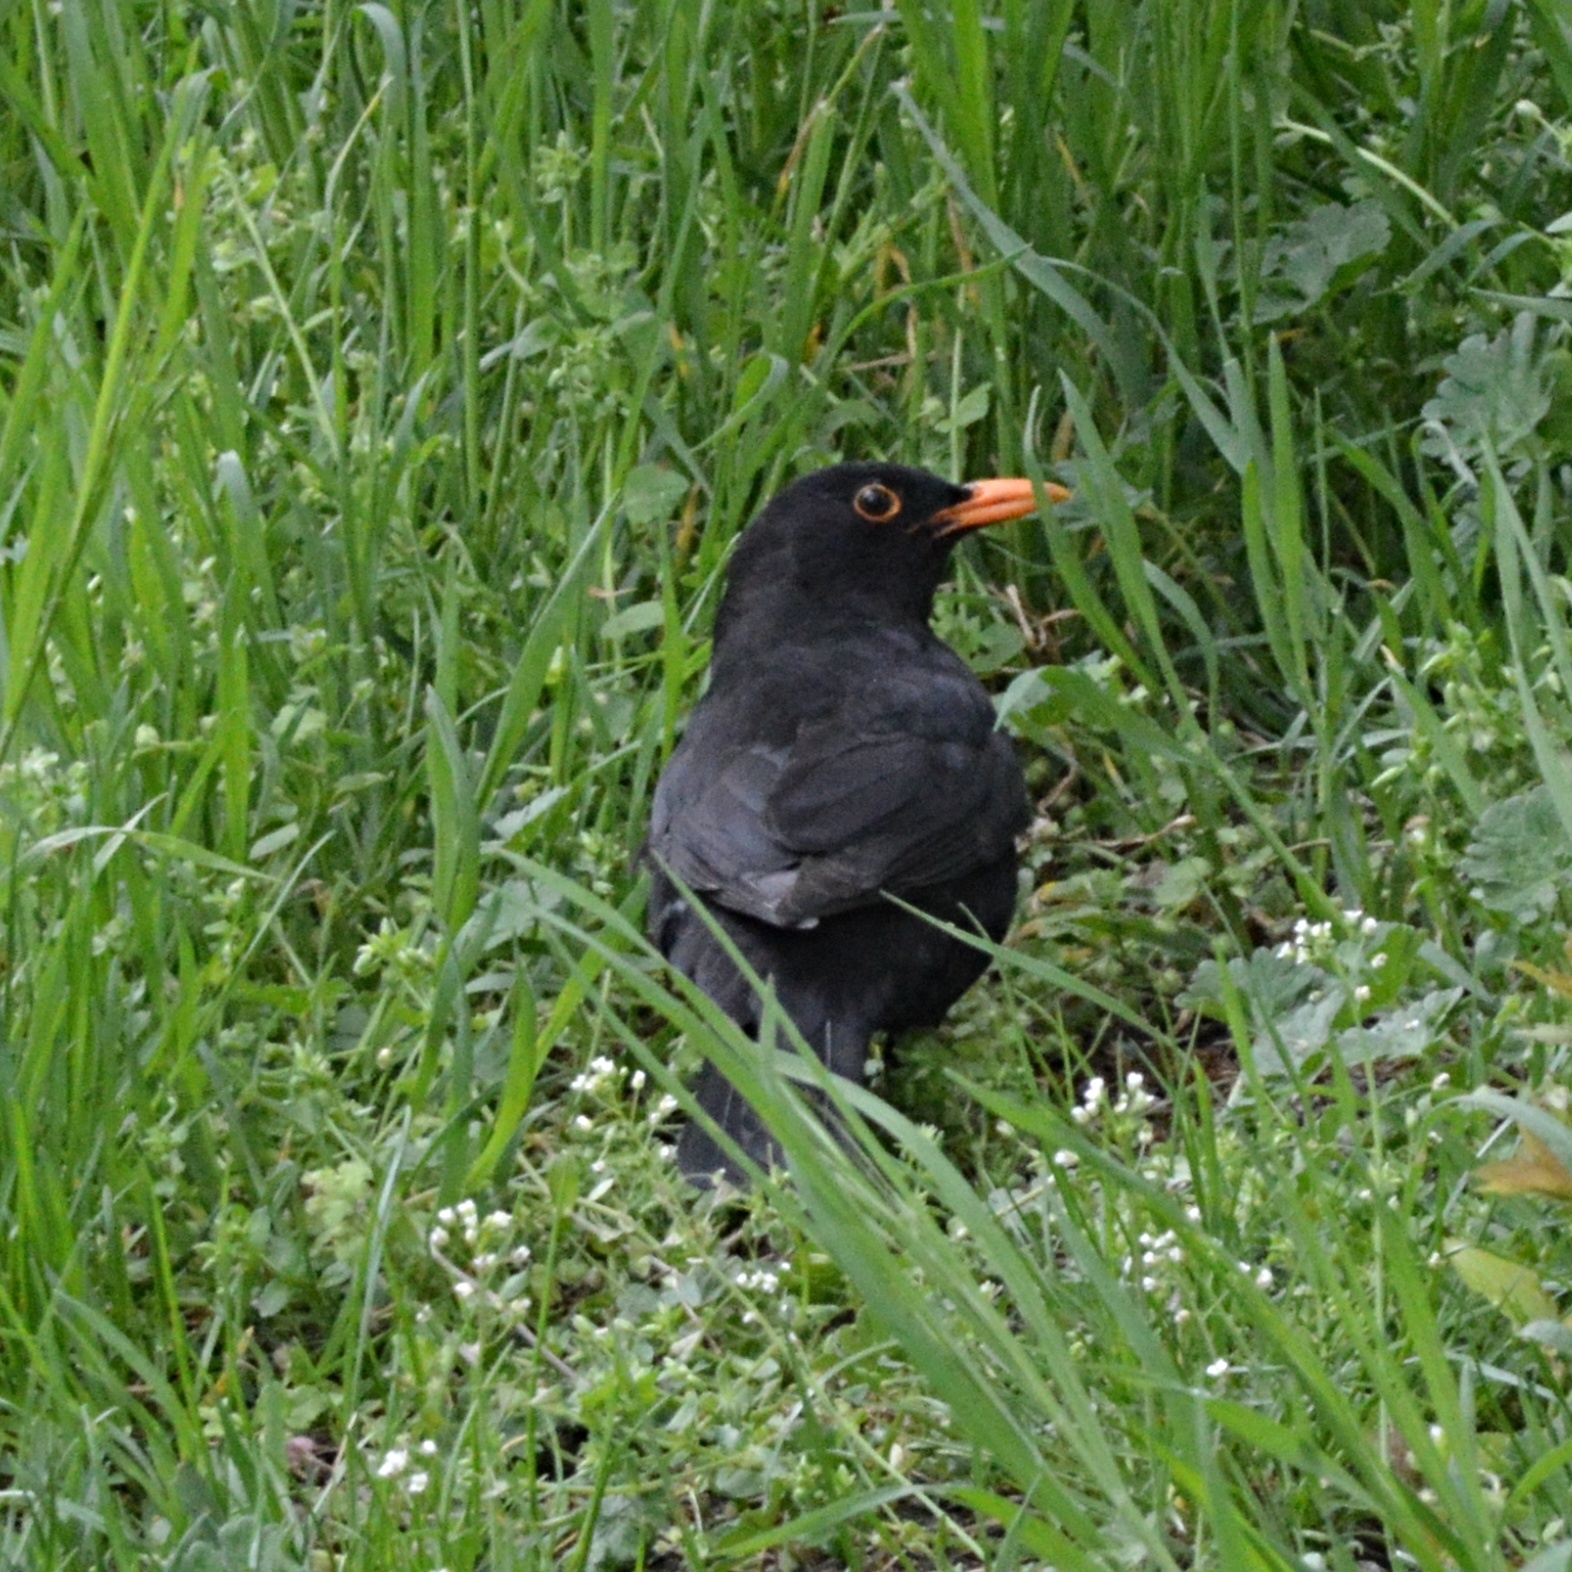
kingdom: Animalia
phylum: Chordata
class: Aves
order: Passeriformes
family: Turdidae
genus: Turdus
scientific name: Turdus merula
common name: Common blackbird
